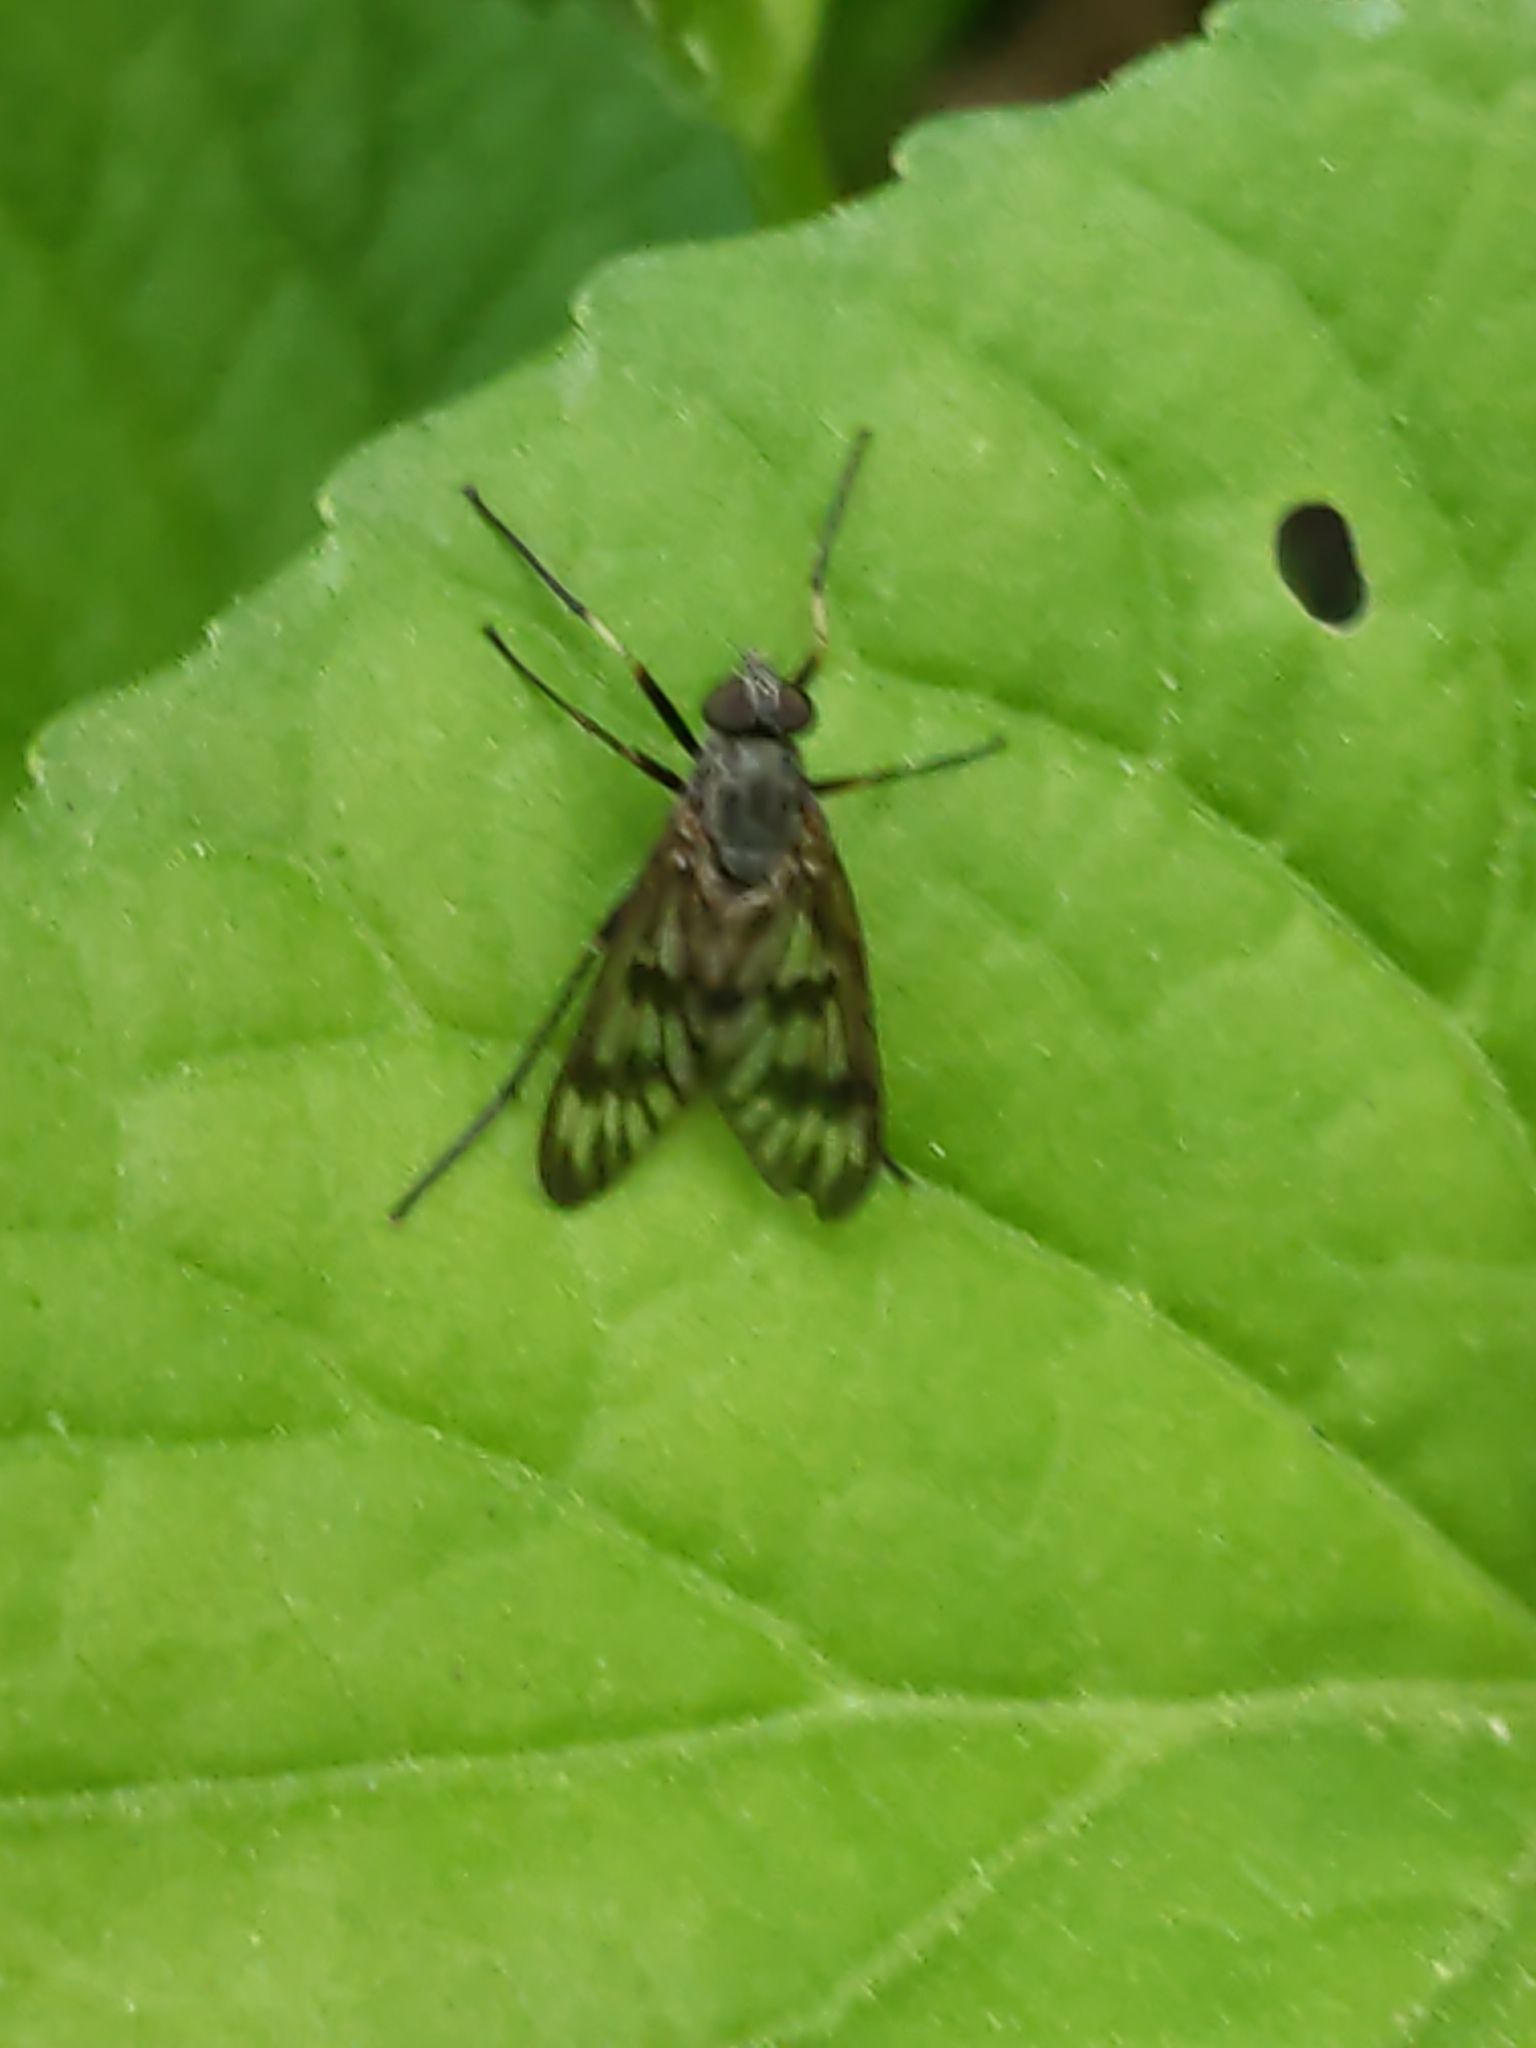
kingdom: Animalia
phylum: Arthropoda
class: Insecta
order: Diptera
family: Rhagionidae
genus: Rhagio
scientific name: Rhagio mystaceus
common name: Common snipe fly
